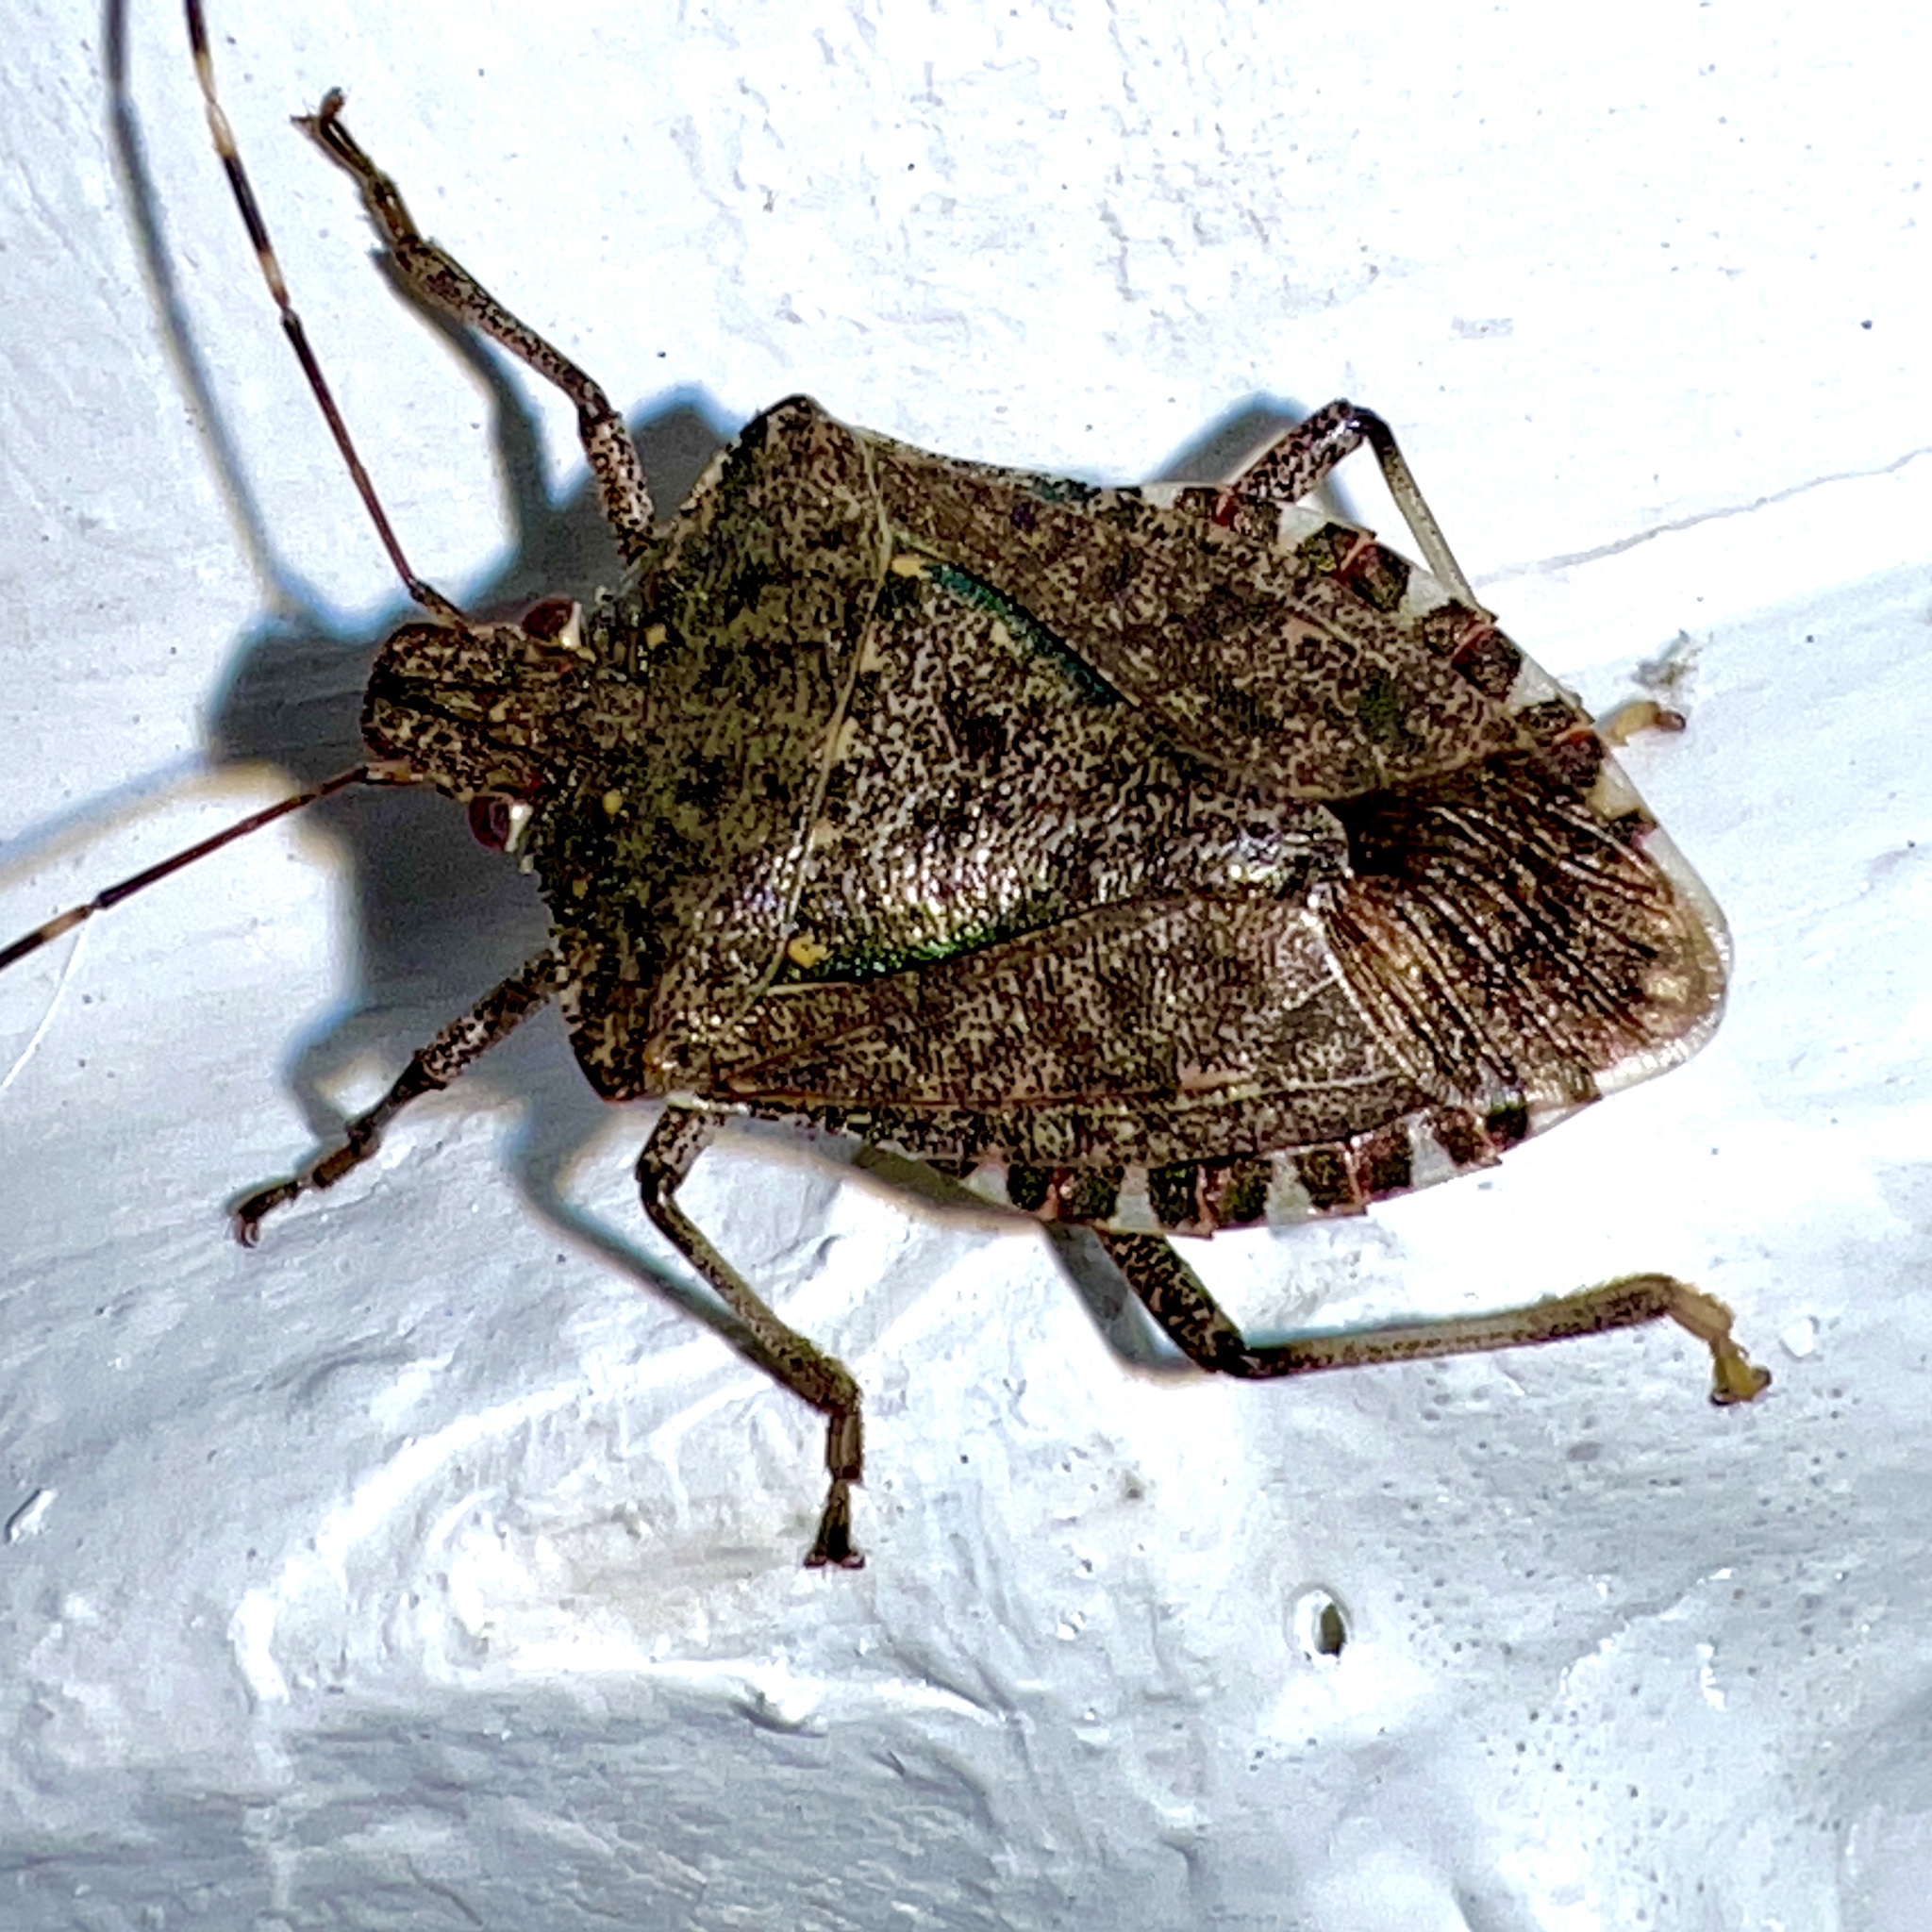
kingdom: Animalia
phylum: Arthropoda
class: Insecta
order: Hemiptera
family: Pentatomidae
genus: Halyomorpha
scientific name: Halyomorpha halys
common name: Brown marmorated stink bug
